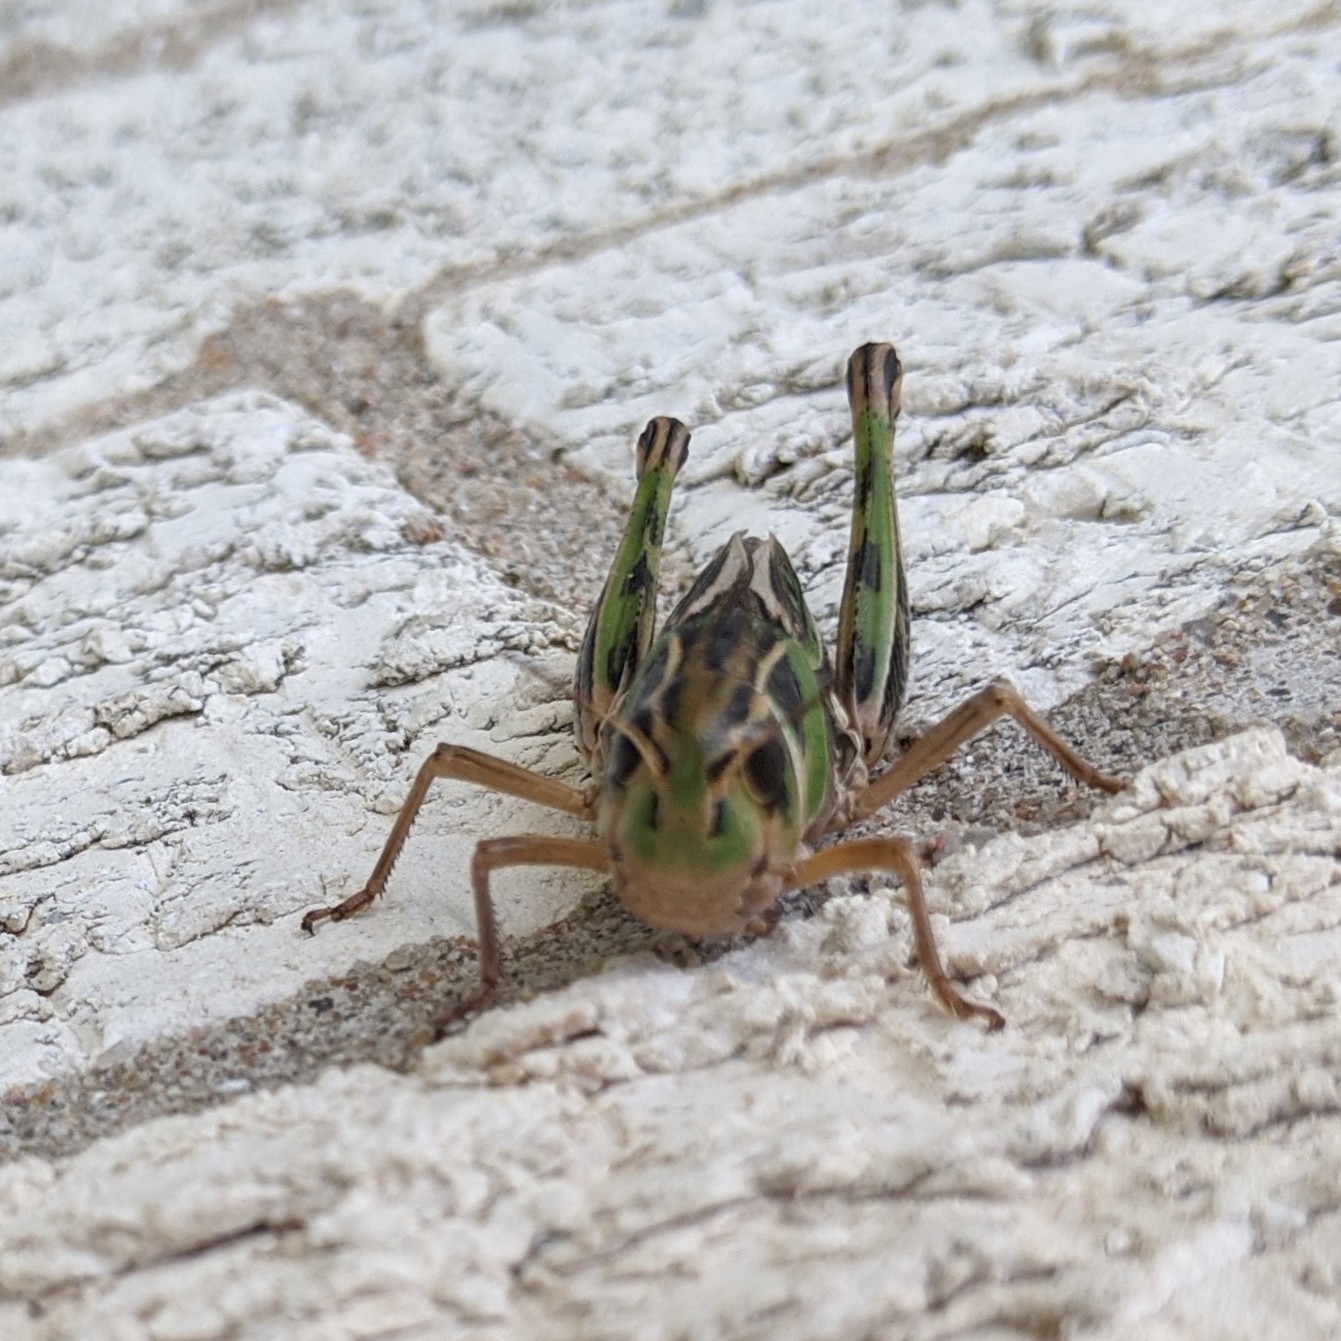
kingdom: Animalia
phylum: Arthropoda
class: Insecta
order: Orthoptera
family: Acrididae
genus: Boopedon
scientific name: Boopedon gracile
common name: Graceful range grasshopper
